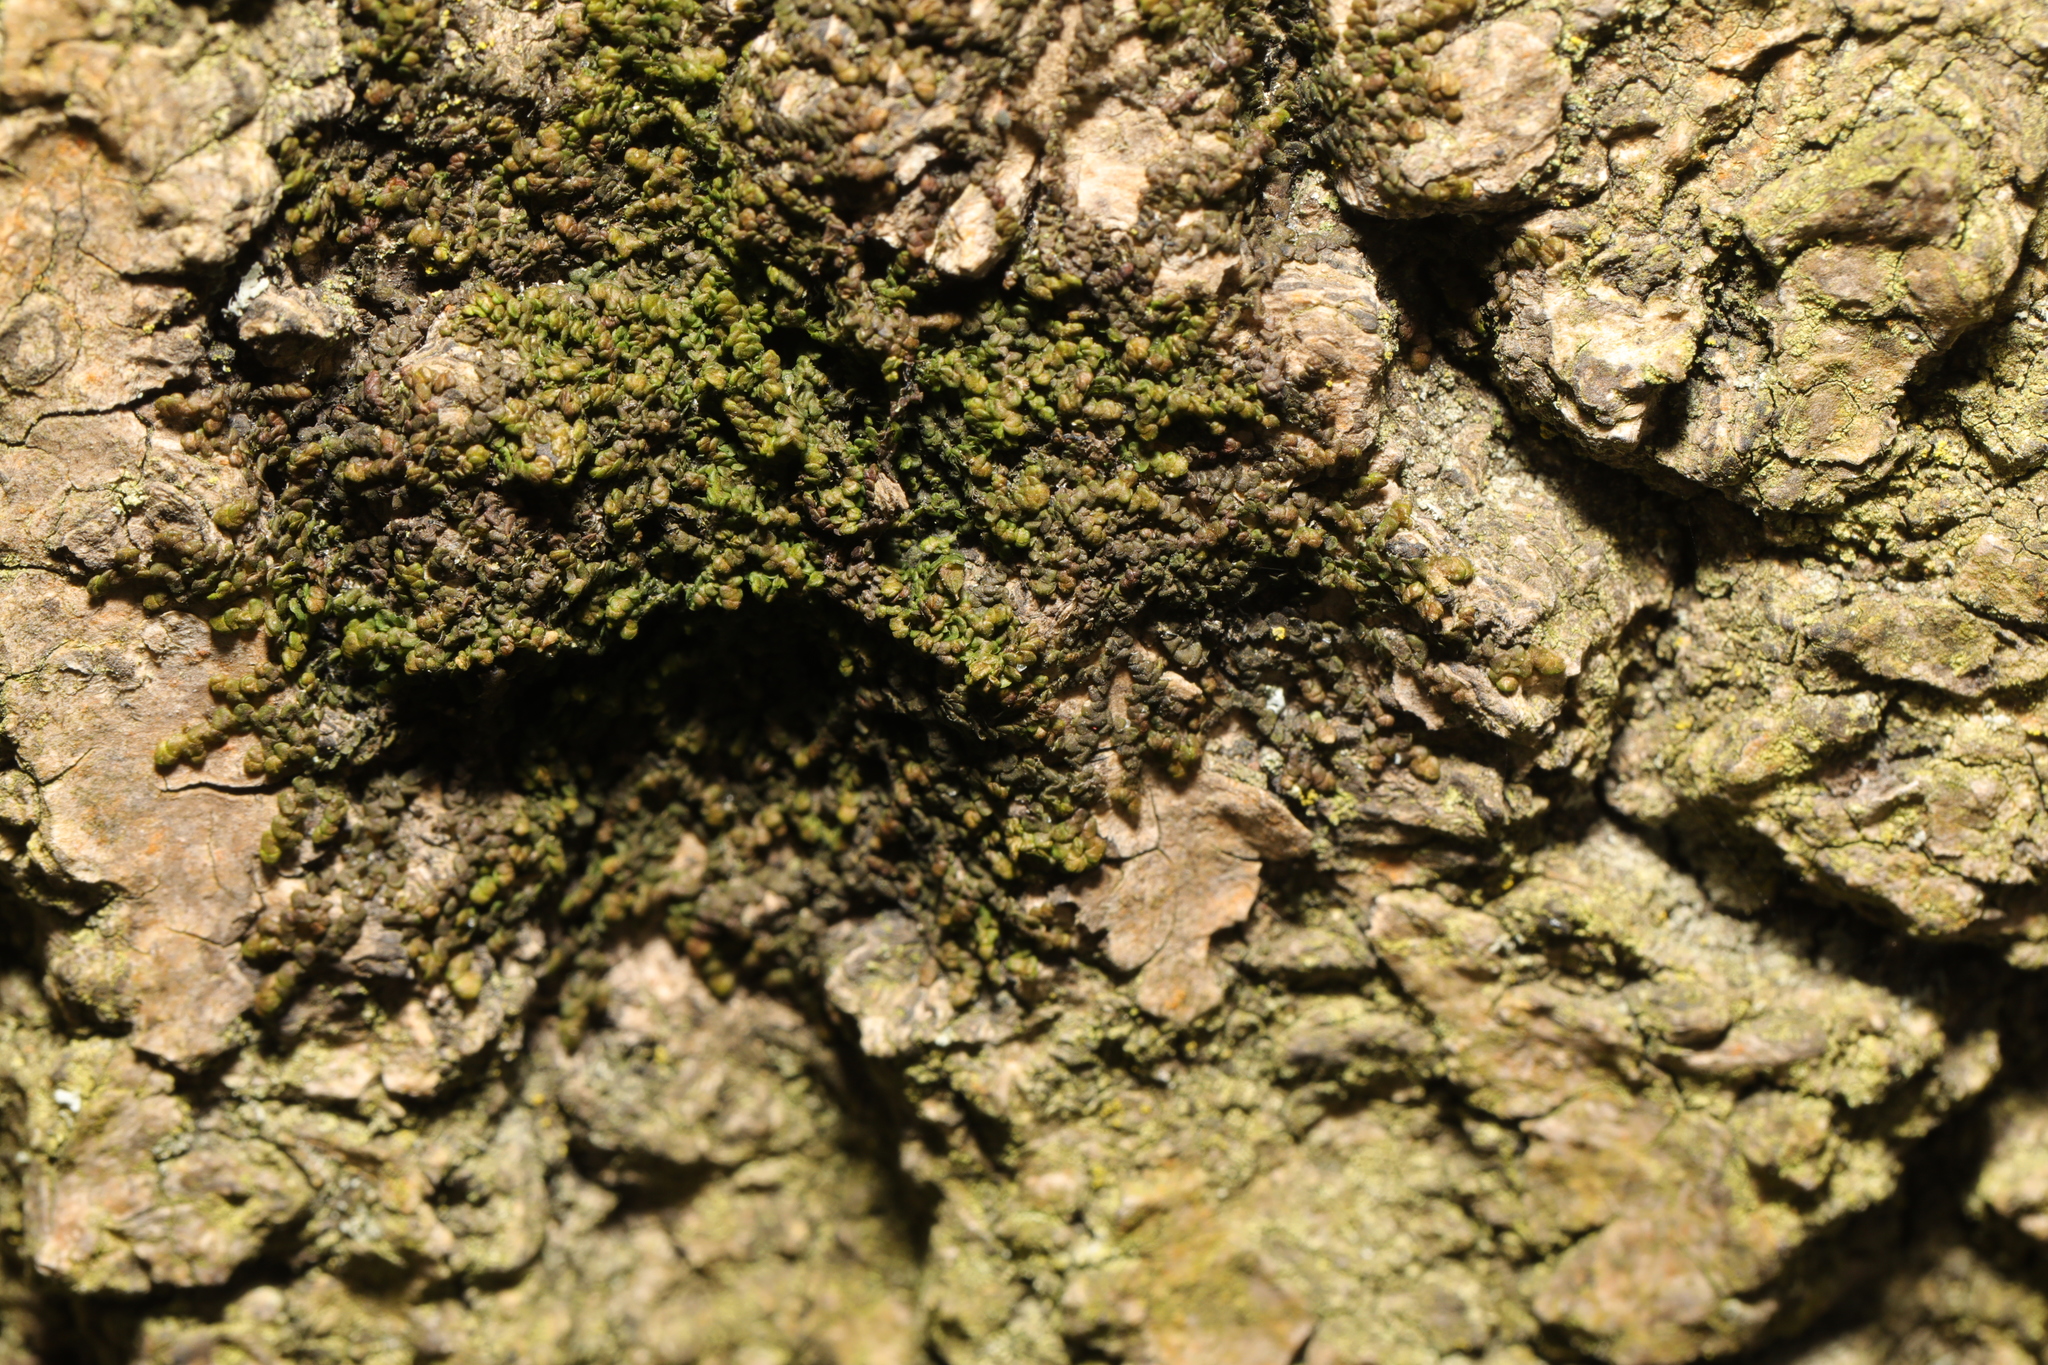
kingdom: Plantae
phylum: Marchantiophyta
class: Jungermanniopsida
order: Porellales
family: Frullaniaceae
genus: Frullania
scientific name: Frullania dilatata
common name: Dilated scalewort
